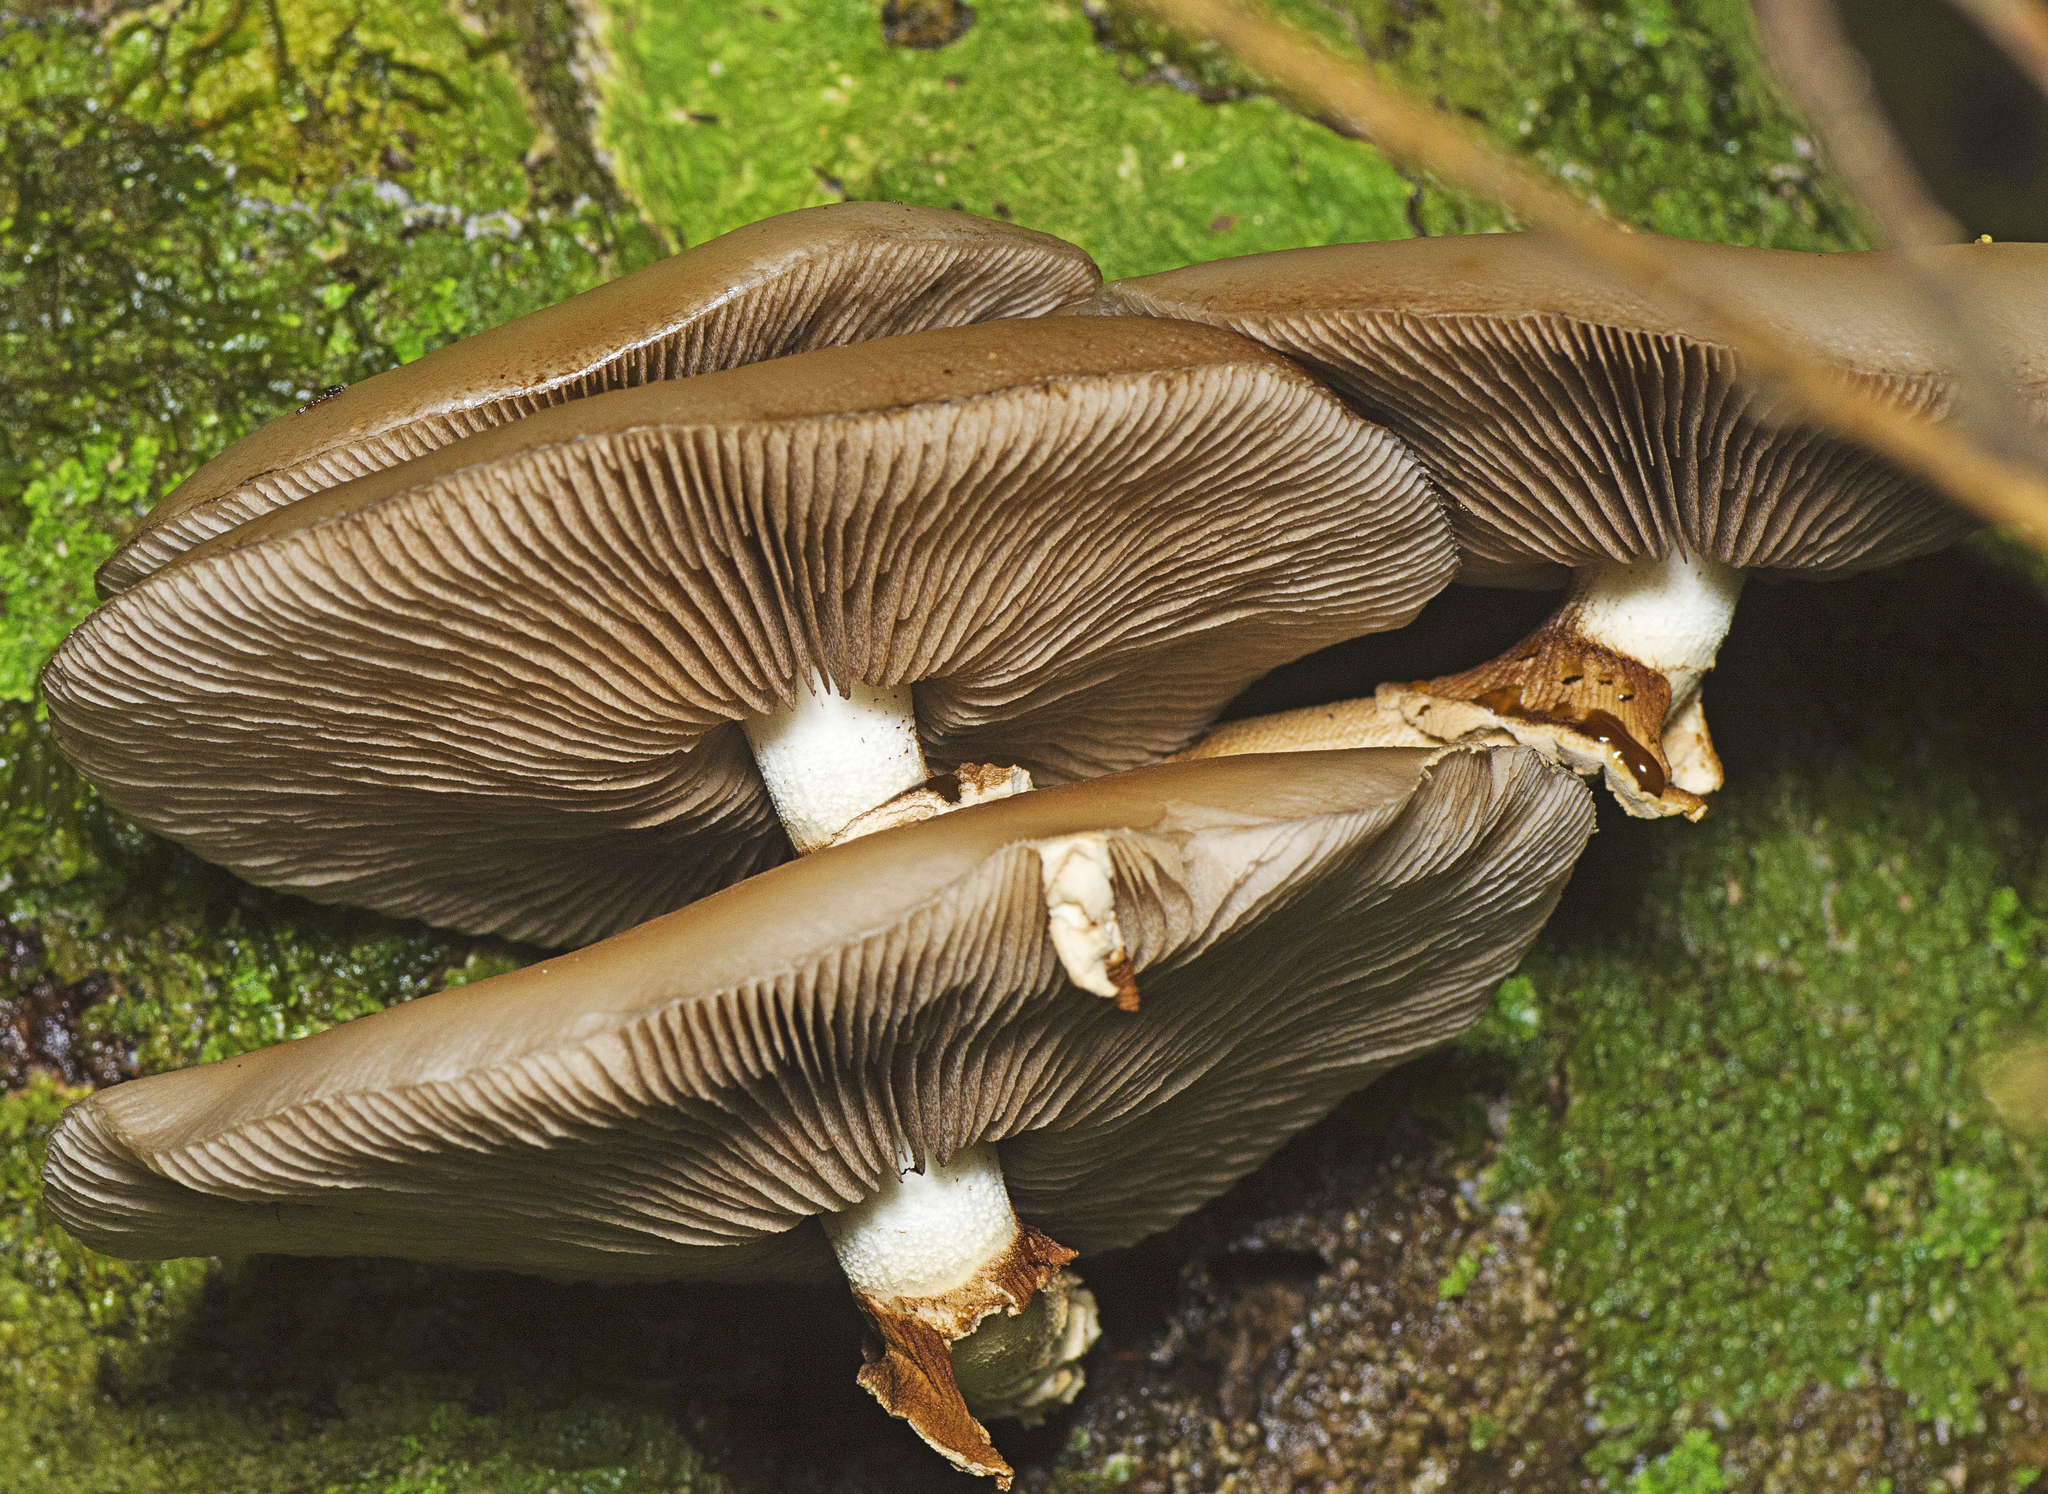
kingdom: Fungi
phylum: Basidiomycota
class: Agaricomycetes
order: Agaricales
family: Tubariaceae
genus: Cyclocybe
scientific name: Cyclocybe parasitica
